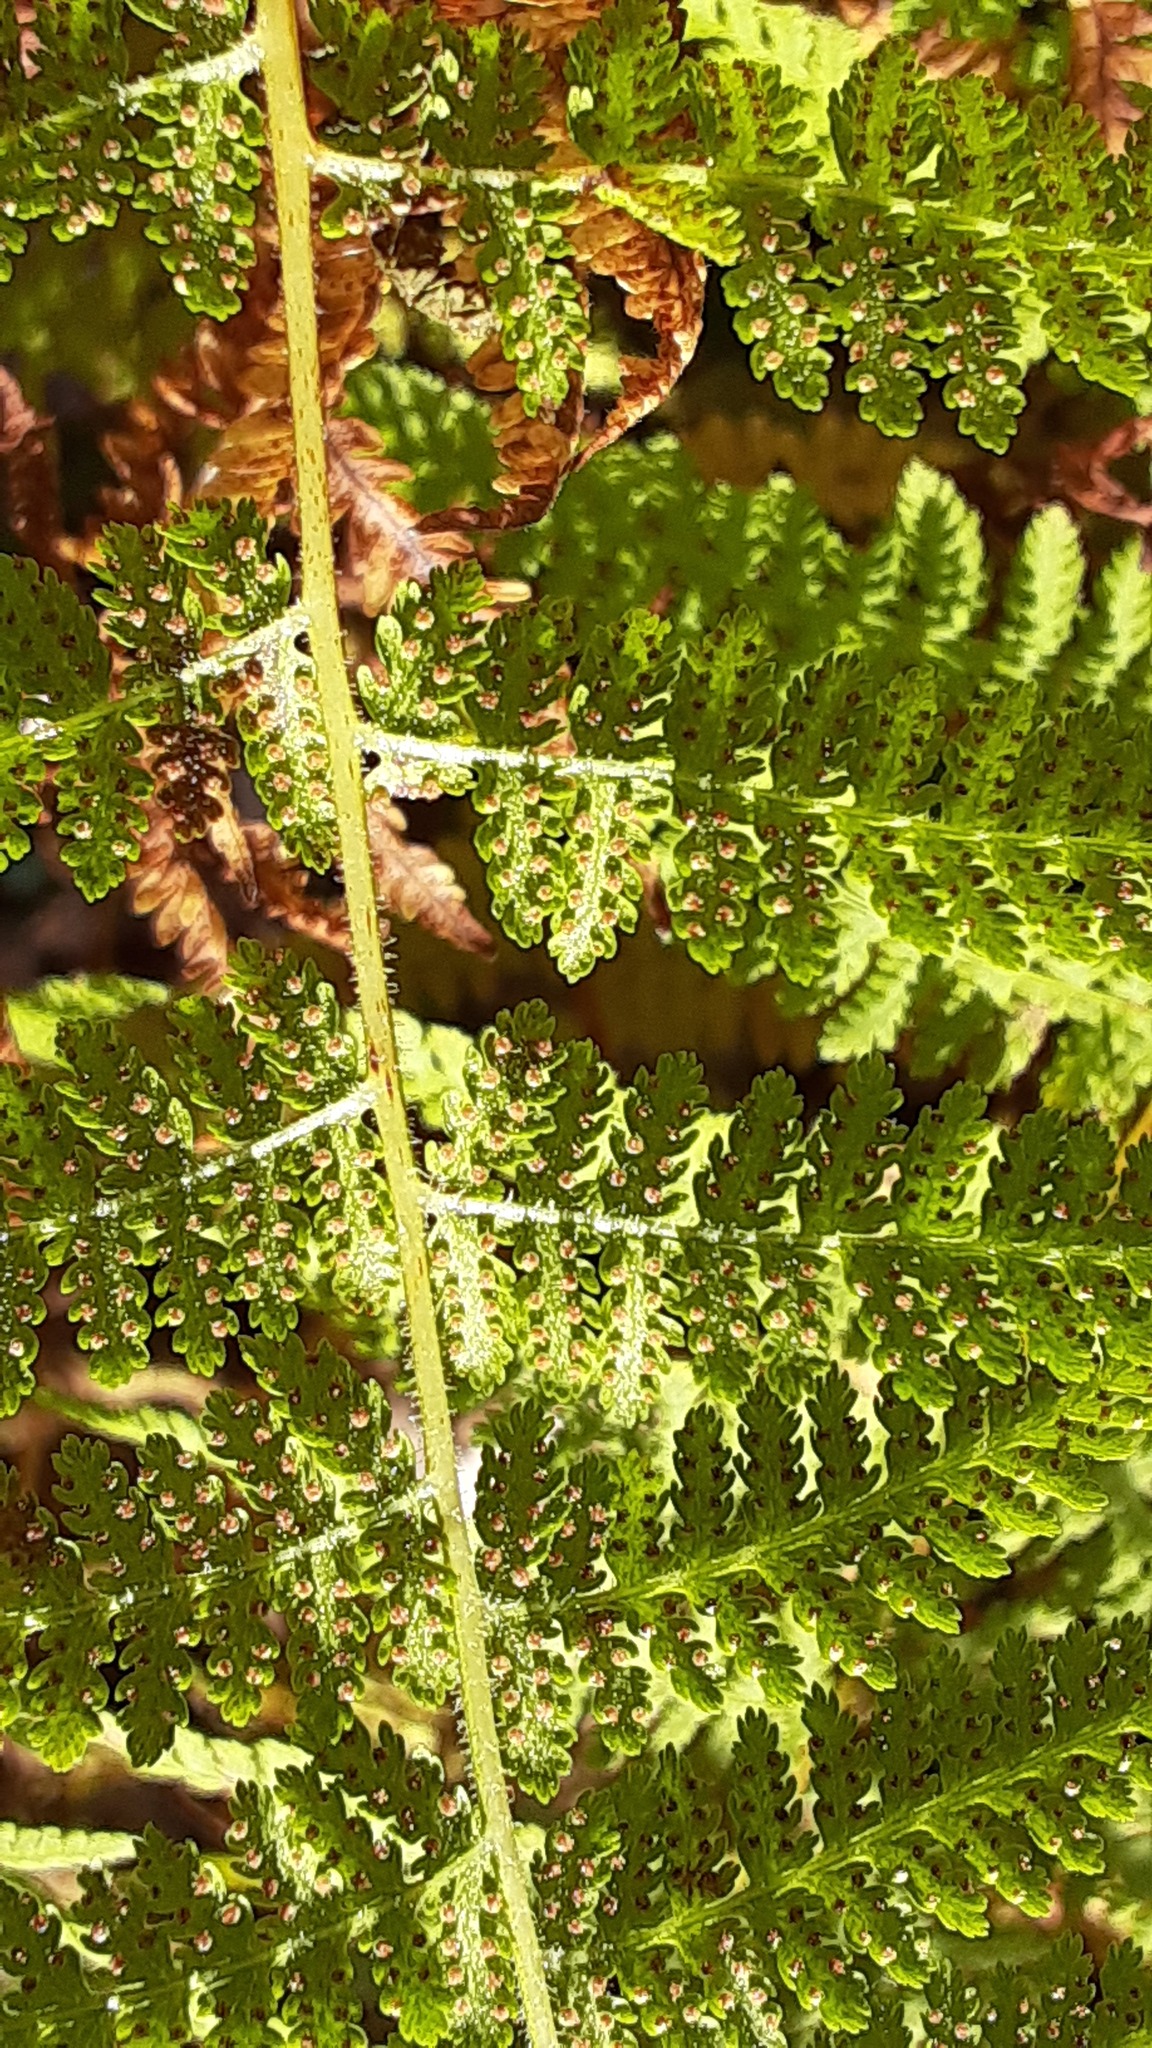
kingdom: Plantae
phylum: Tracheophyta
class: Polypodiopsida
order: Polypodiales
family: Dennstaedtiaceae
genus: Sitobolium
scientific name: Sitobolium punctilobum
